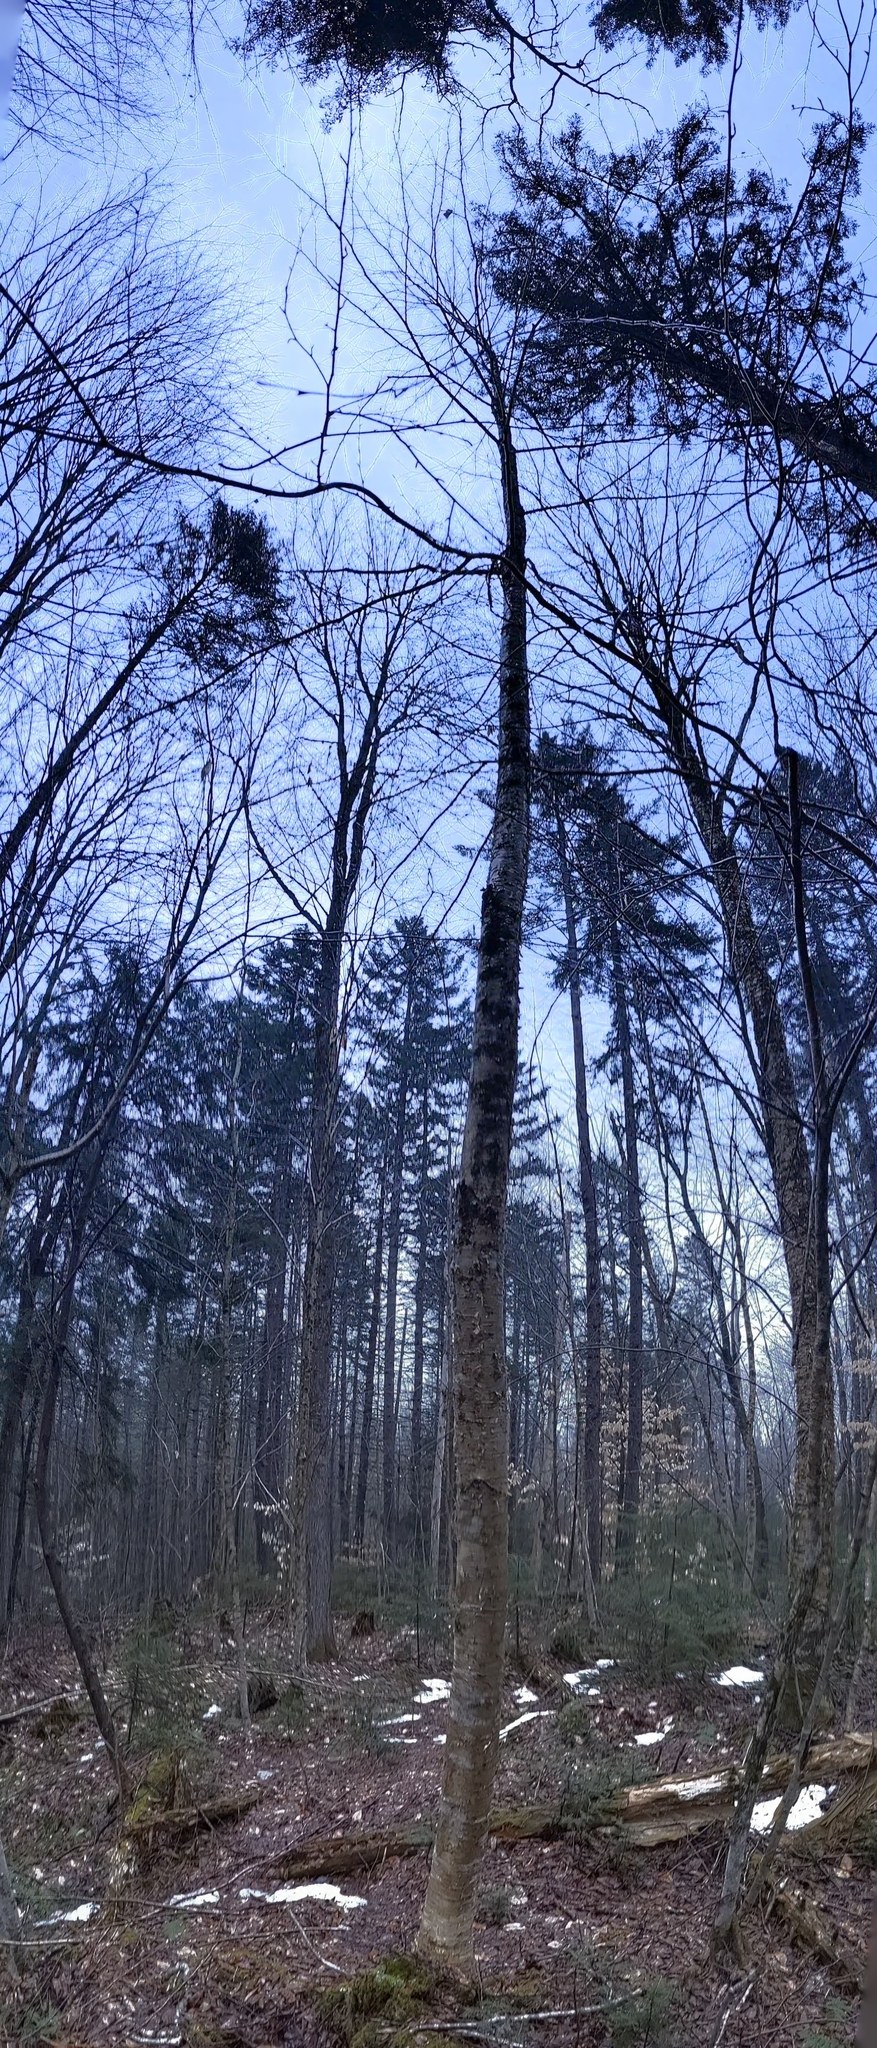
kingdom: Plantae
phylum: Tracheophyta
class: Magnoliopsida
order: Fagales
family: Betulaceae
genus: Betula
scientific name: Betula alleghaniensis
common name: Yellow birch
